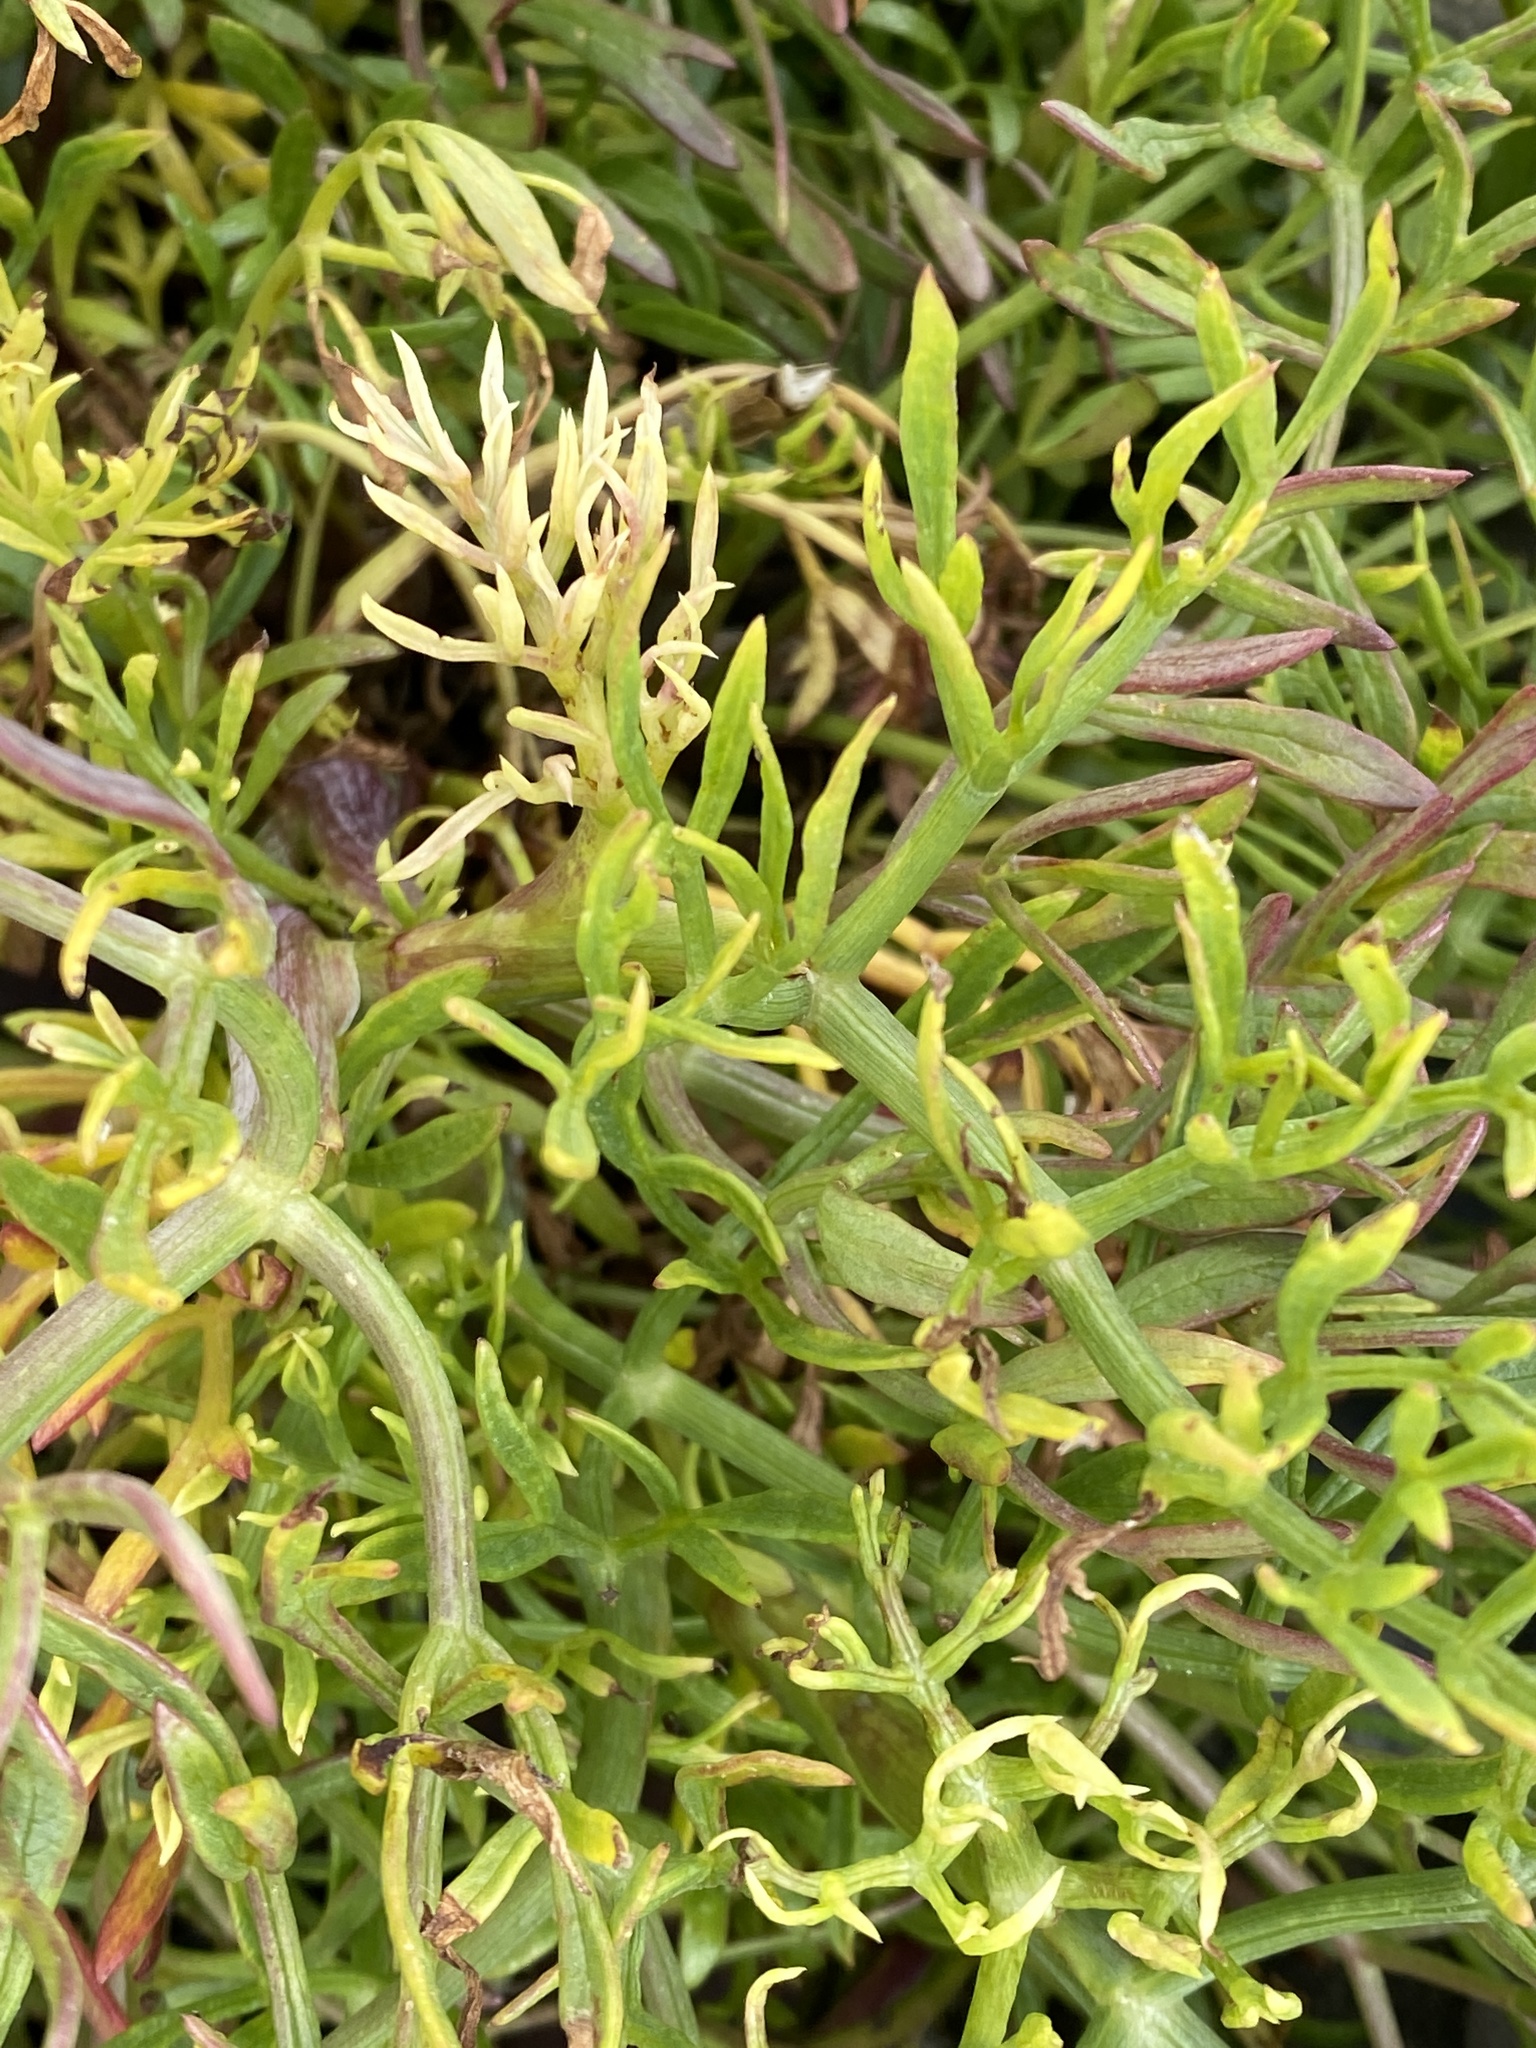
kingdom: Plantae
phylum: Tracheophyta
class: Magnoliopsida
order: Apiales
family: Apiaceae
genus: Crithmum
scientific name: Crithmum maritimum
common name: Rock samphire
